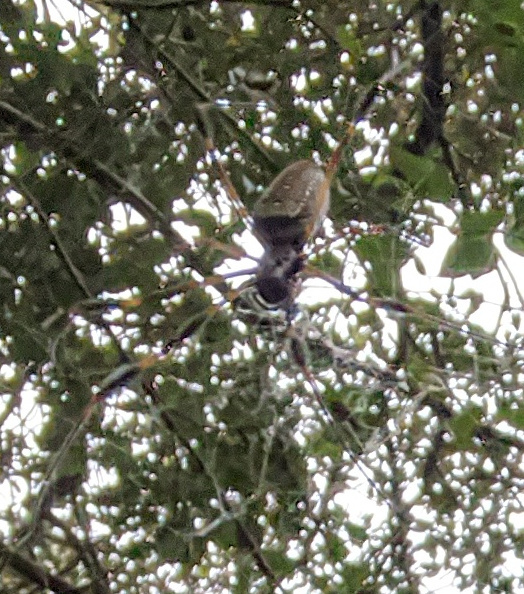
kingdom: Animalia
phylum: Arthropoda
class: Arachnida
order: Araneae
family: Araneidae
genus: Trichonephila
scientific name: Trichonephila clavipes
